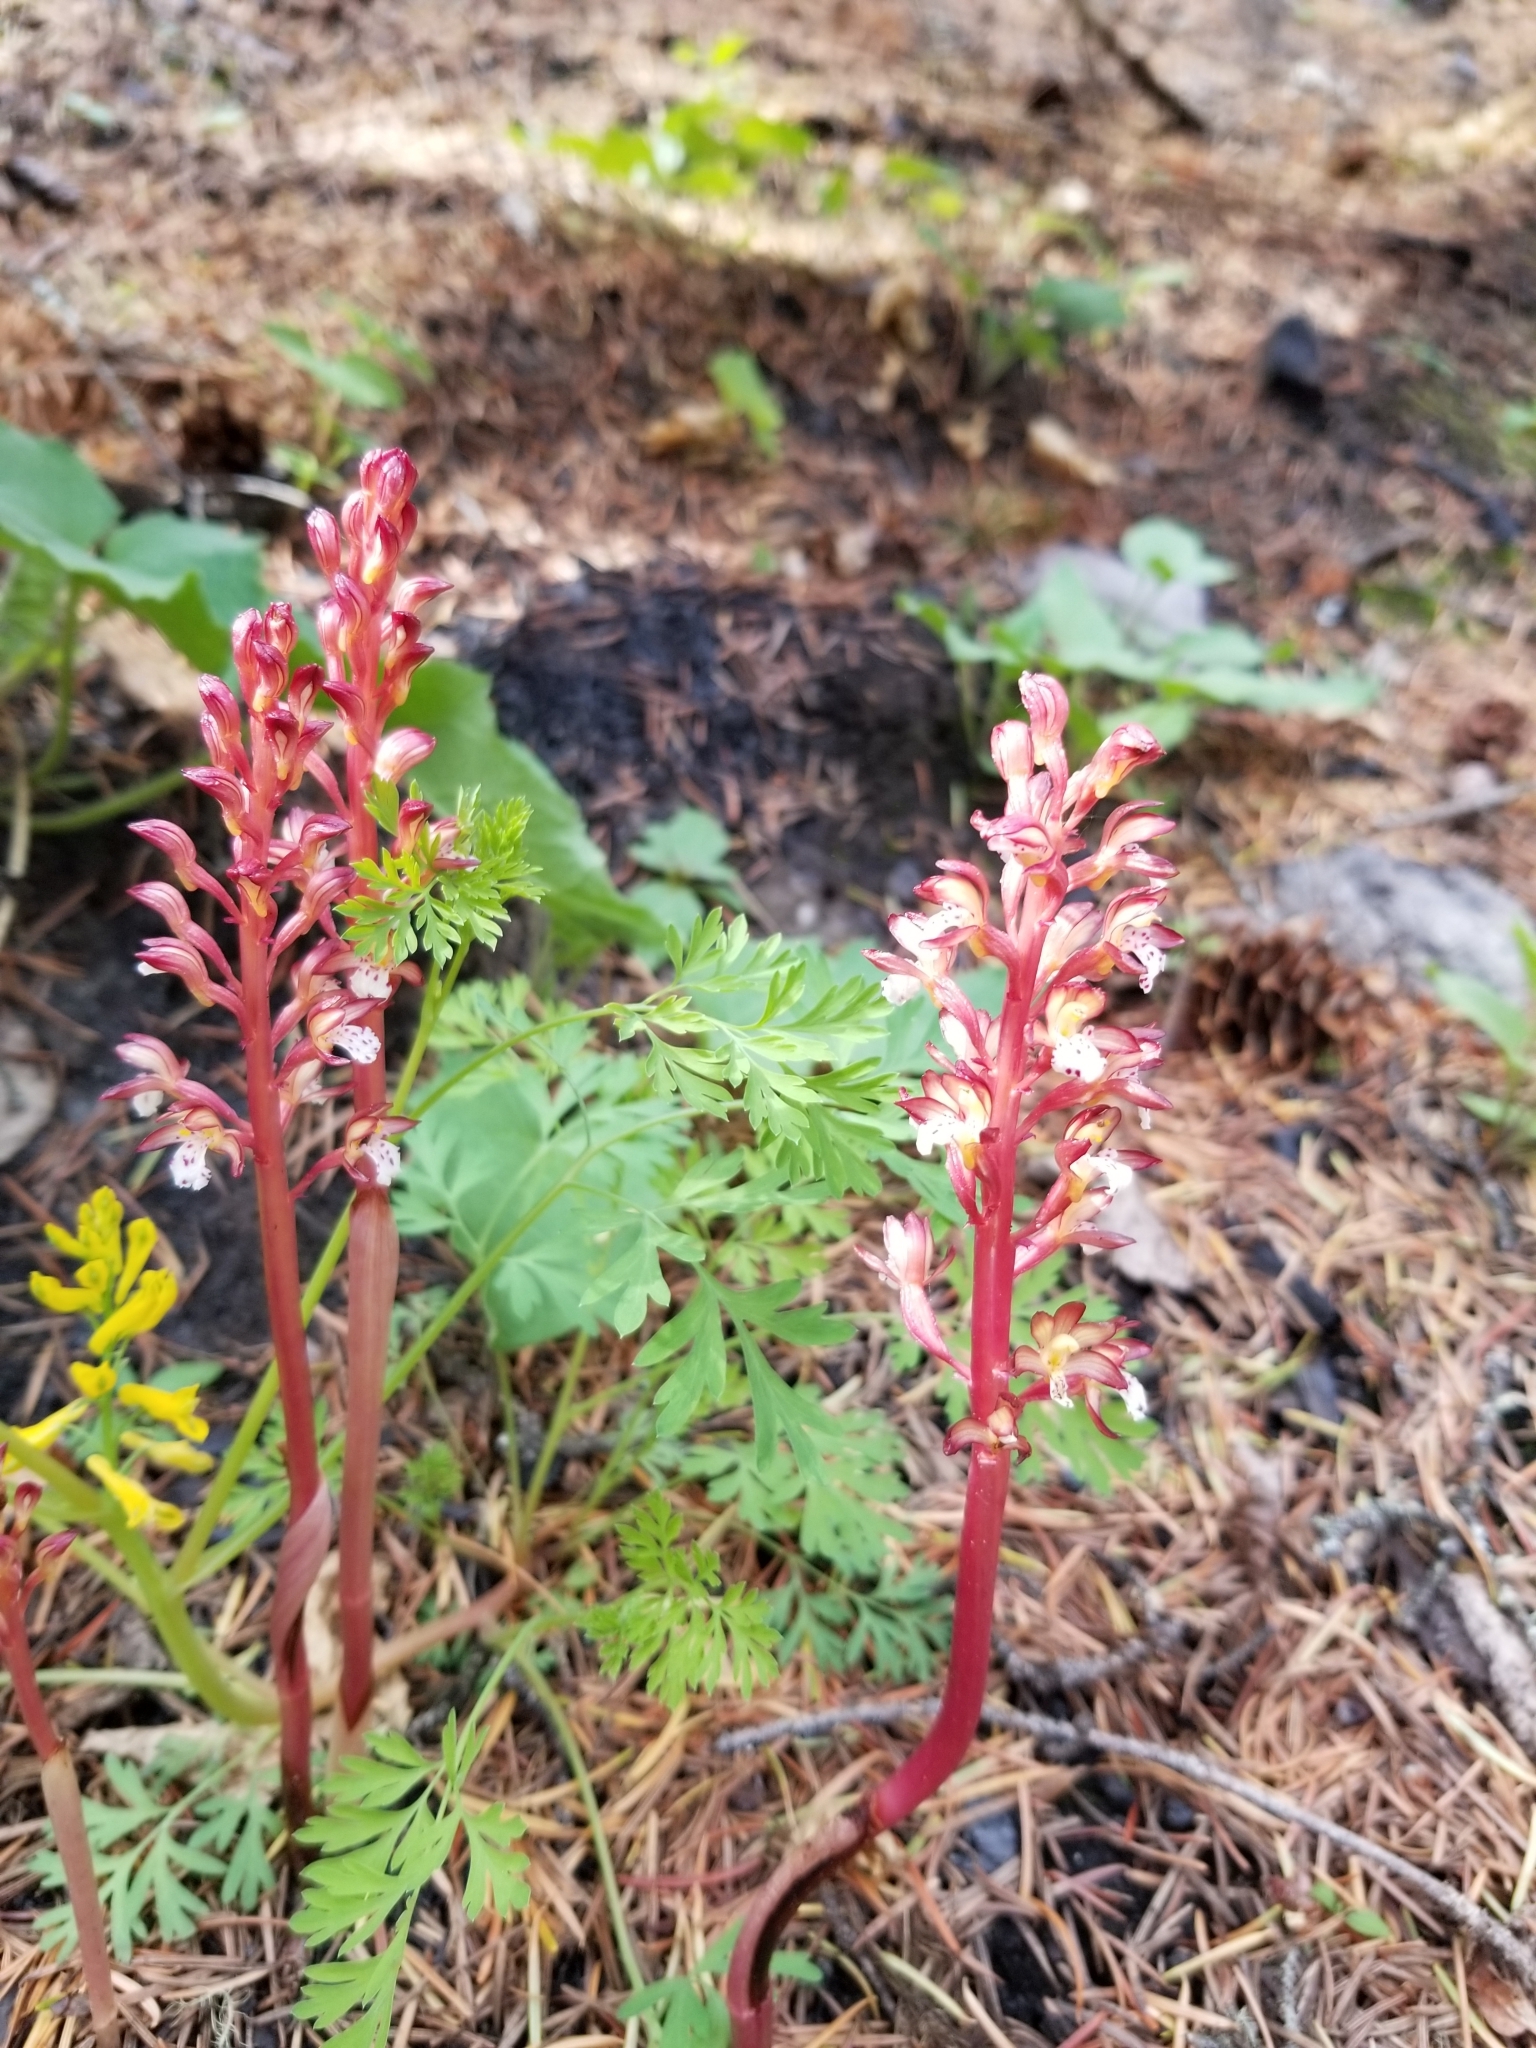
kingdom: Plantae
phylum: Tracheophyta
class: Liliopsida
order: Asparagales
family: Orchidaceae
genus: Corallorhiza
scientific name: Corallorhiza maculata
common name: Spotted coralroot
